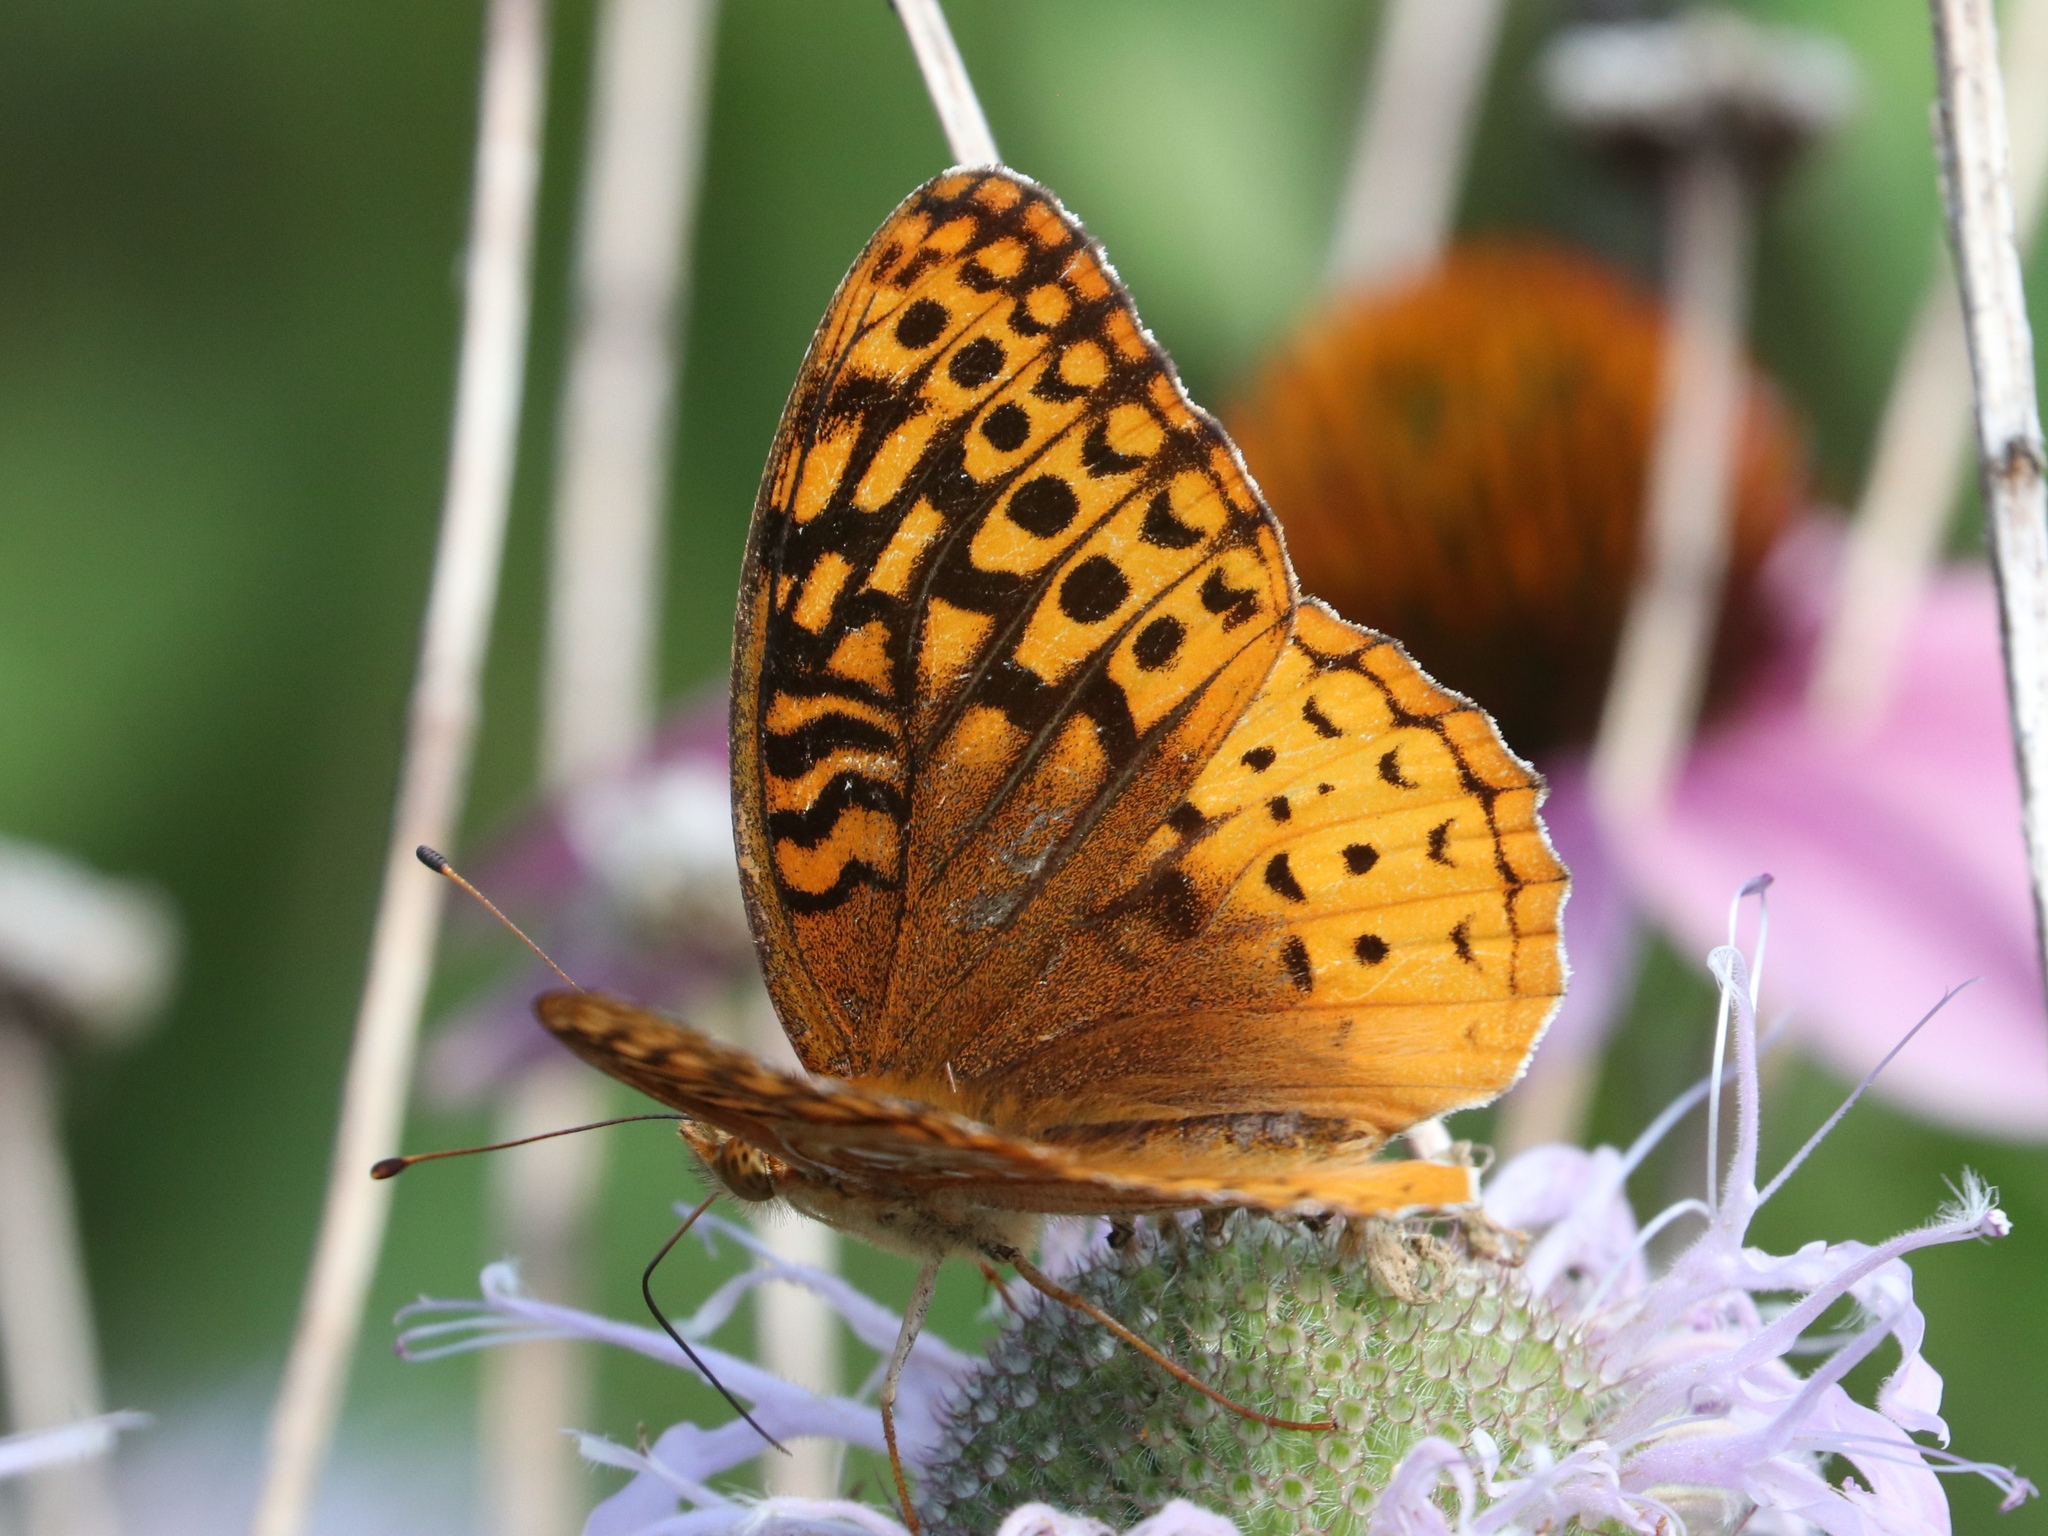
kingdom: Animalia
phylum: Arthropoda
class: Insecta
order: Lepidoptera
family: Nymphalidae
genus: Speyeria
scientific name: Speyeria aphrodite
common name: Aphrodite friitllary
